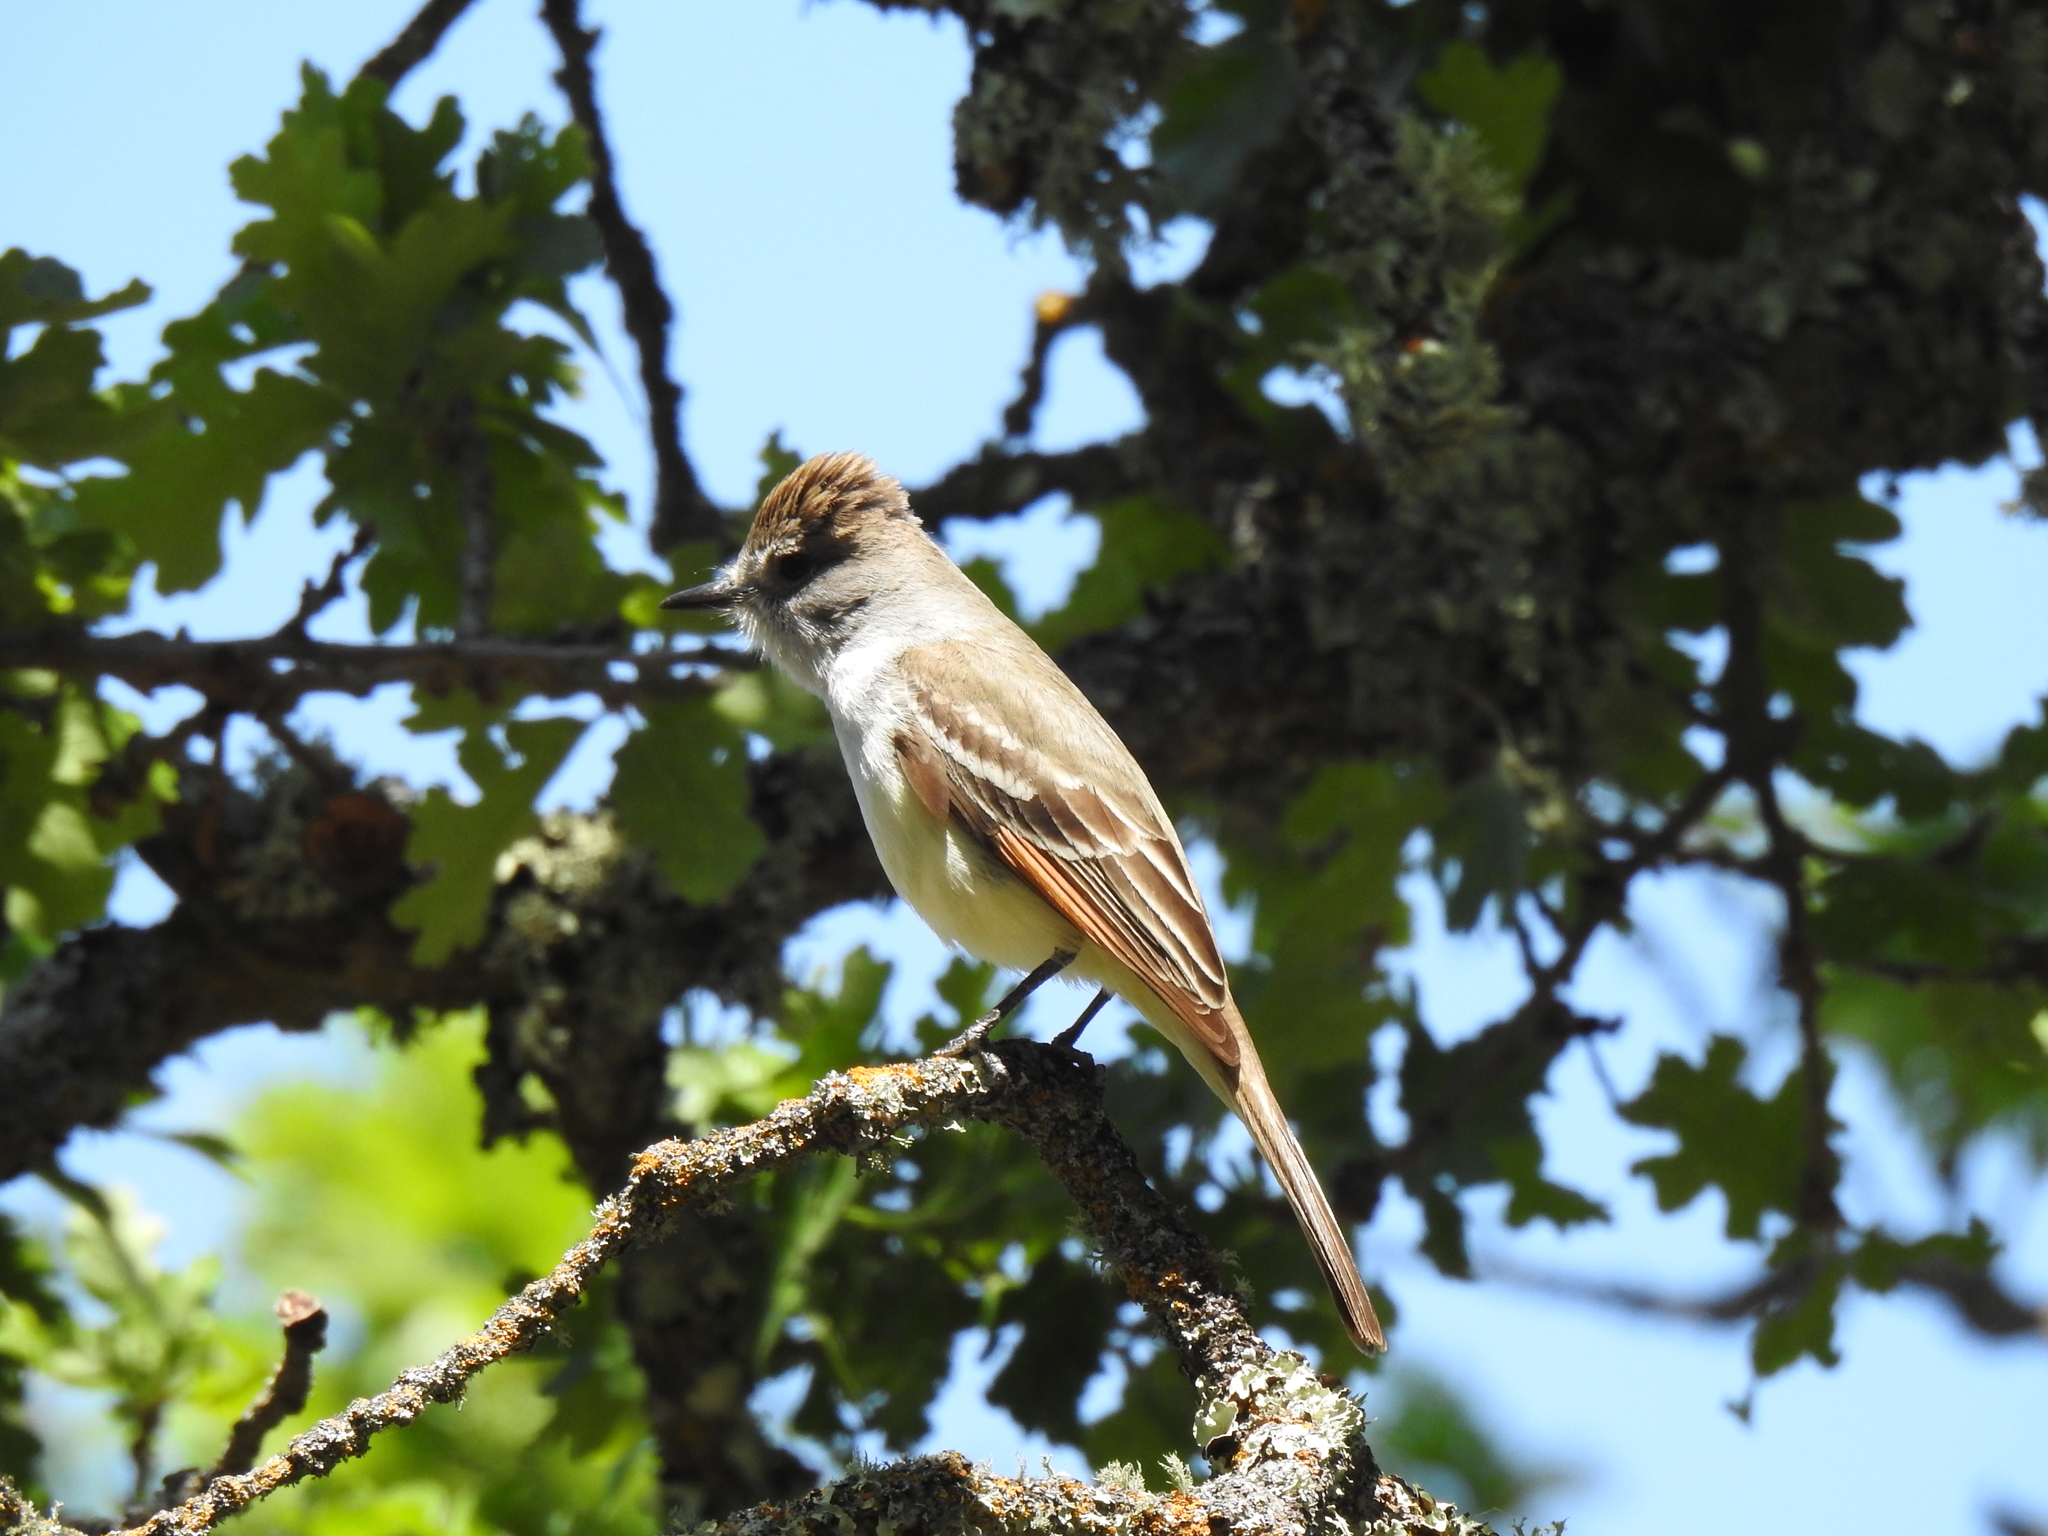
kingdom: Animalia
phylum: Chordata
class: Aves
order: Passeriformes
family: Tyrannidae
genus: Myiarchus
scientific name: Myiarchus cinerascens
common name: Ash-throated flycatcher
